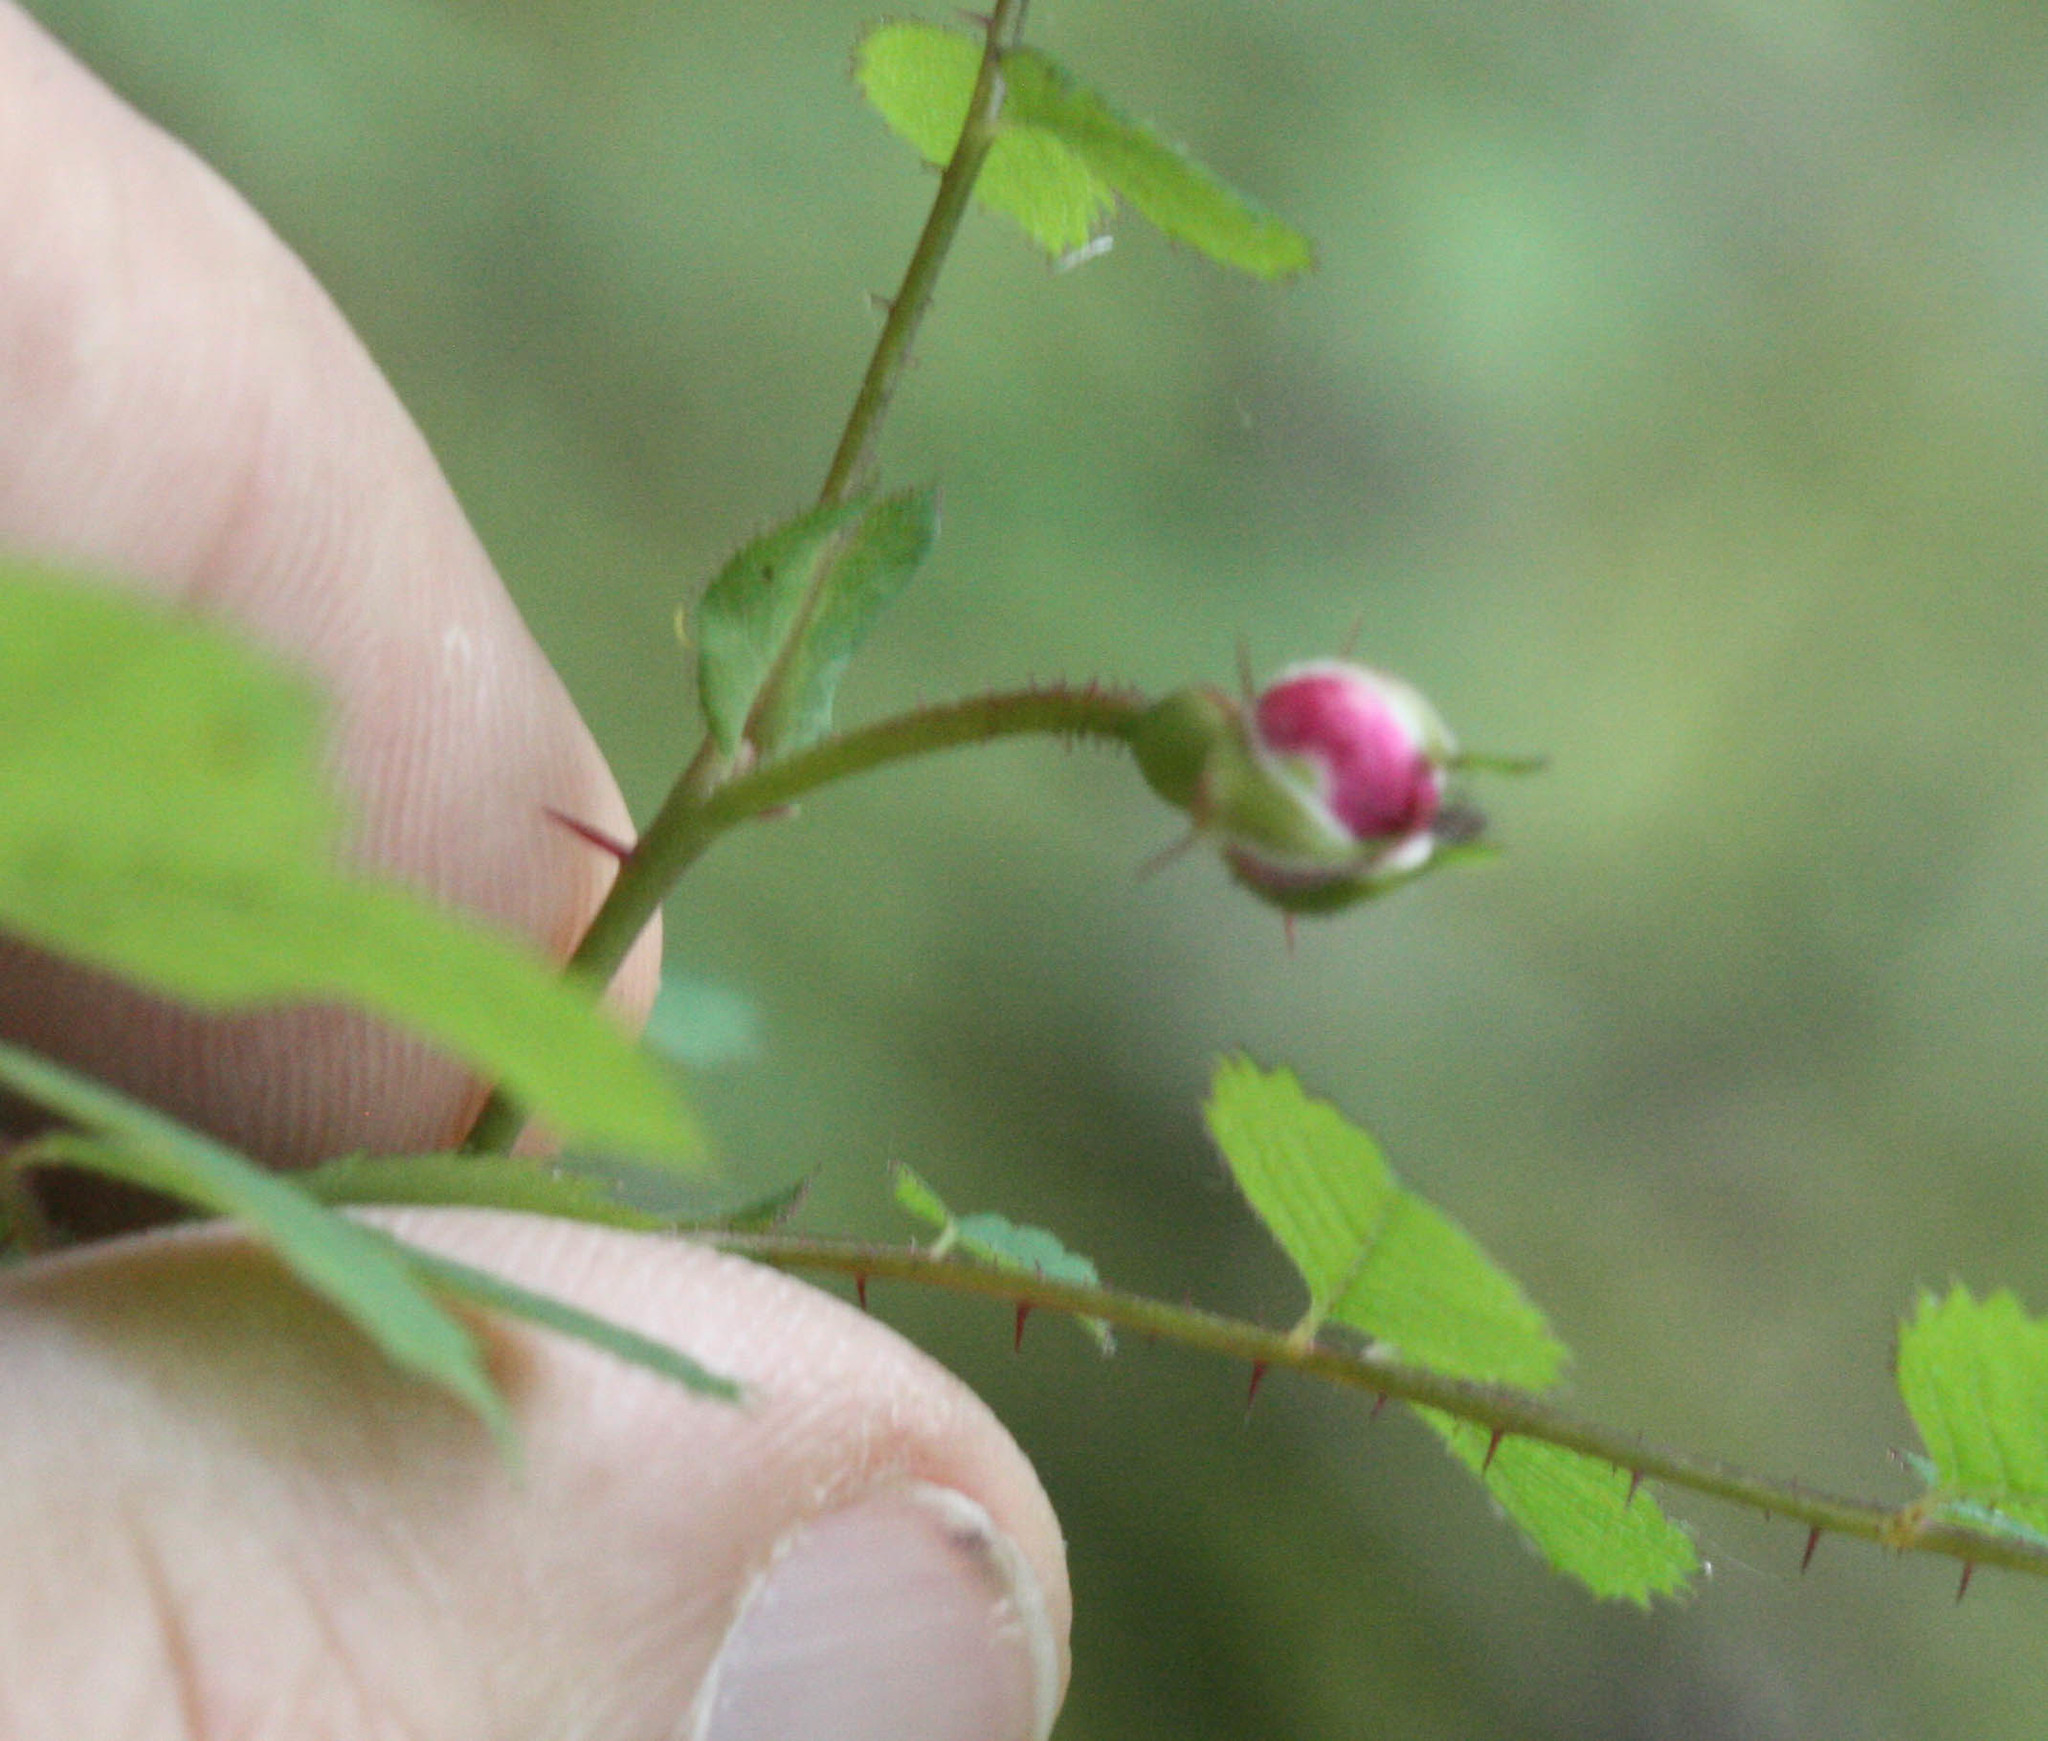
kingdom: Plantae
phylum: Tracheophyta
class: Magnoliopsida
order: Rosales
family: Rosaceae
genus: Rosa
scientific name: Rosa gymnocarpa
